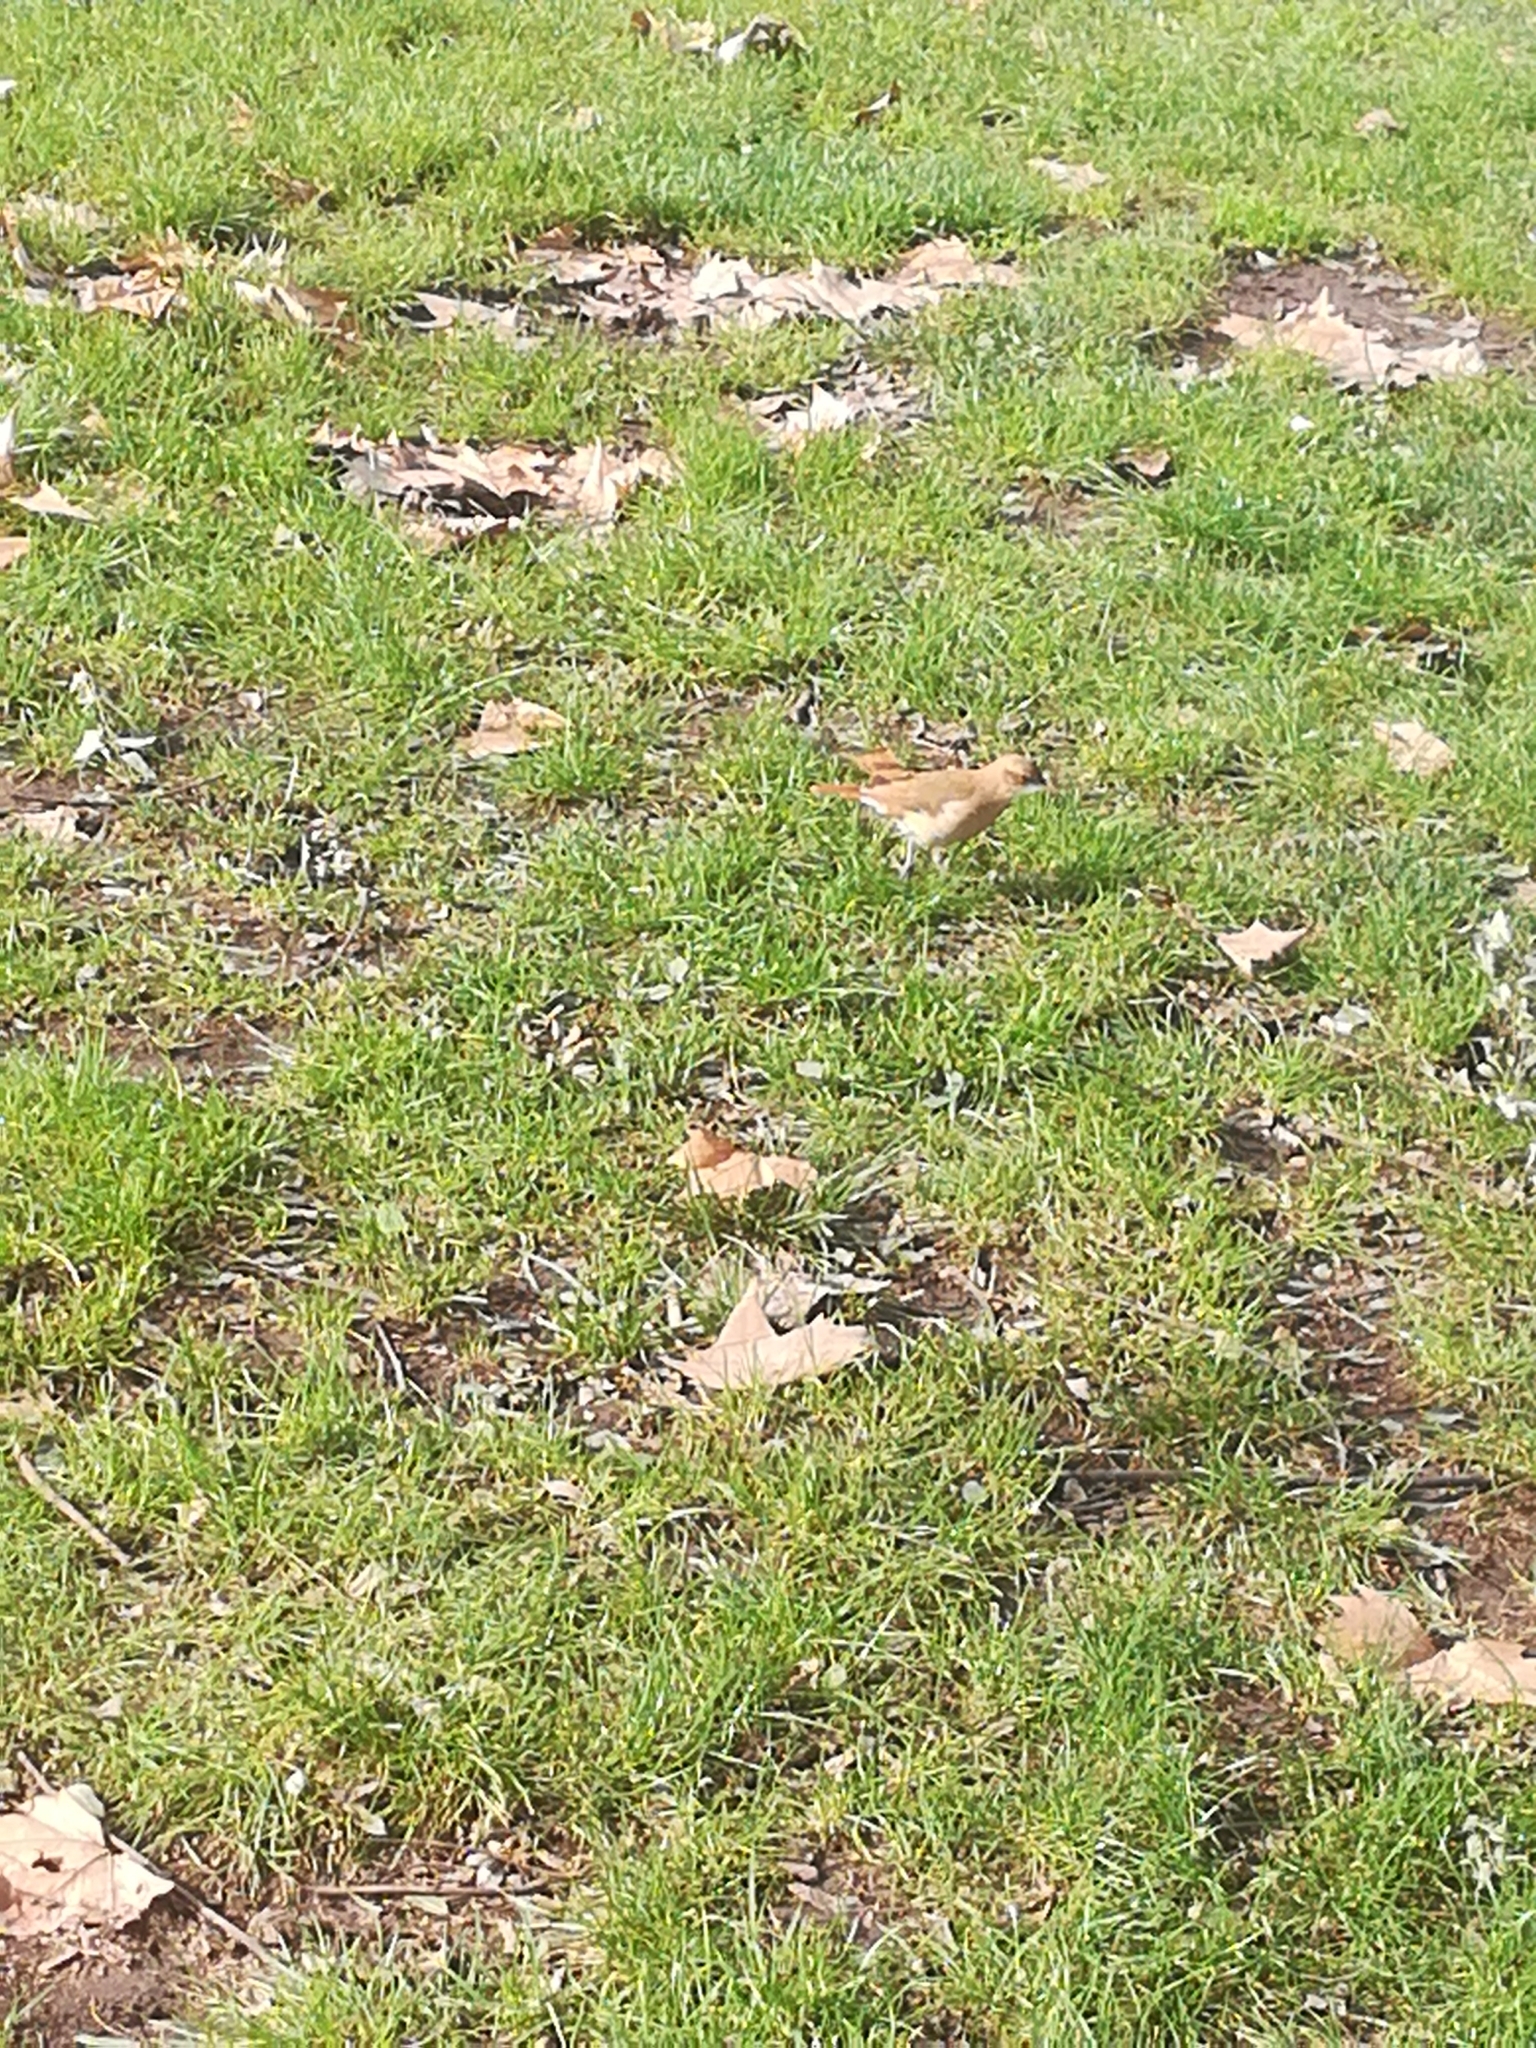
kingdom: Animalia
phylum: Chordata
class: Aves
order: Passeriformes
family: Furnariidae
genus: Furnarius
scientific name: Furnarius rufus
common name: Rufous hornero
